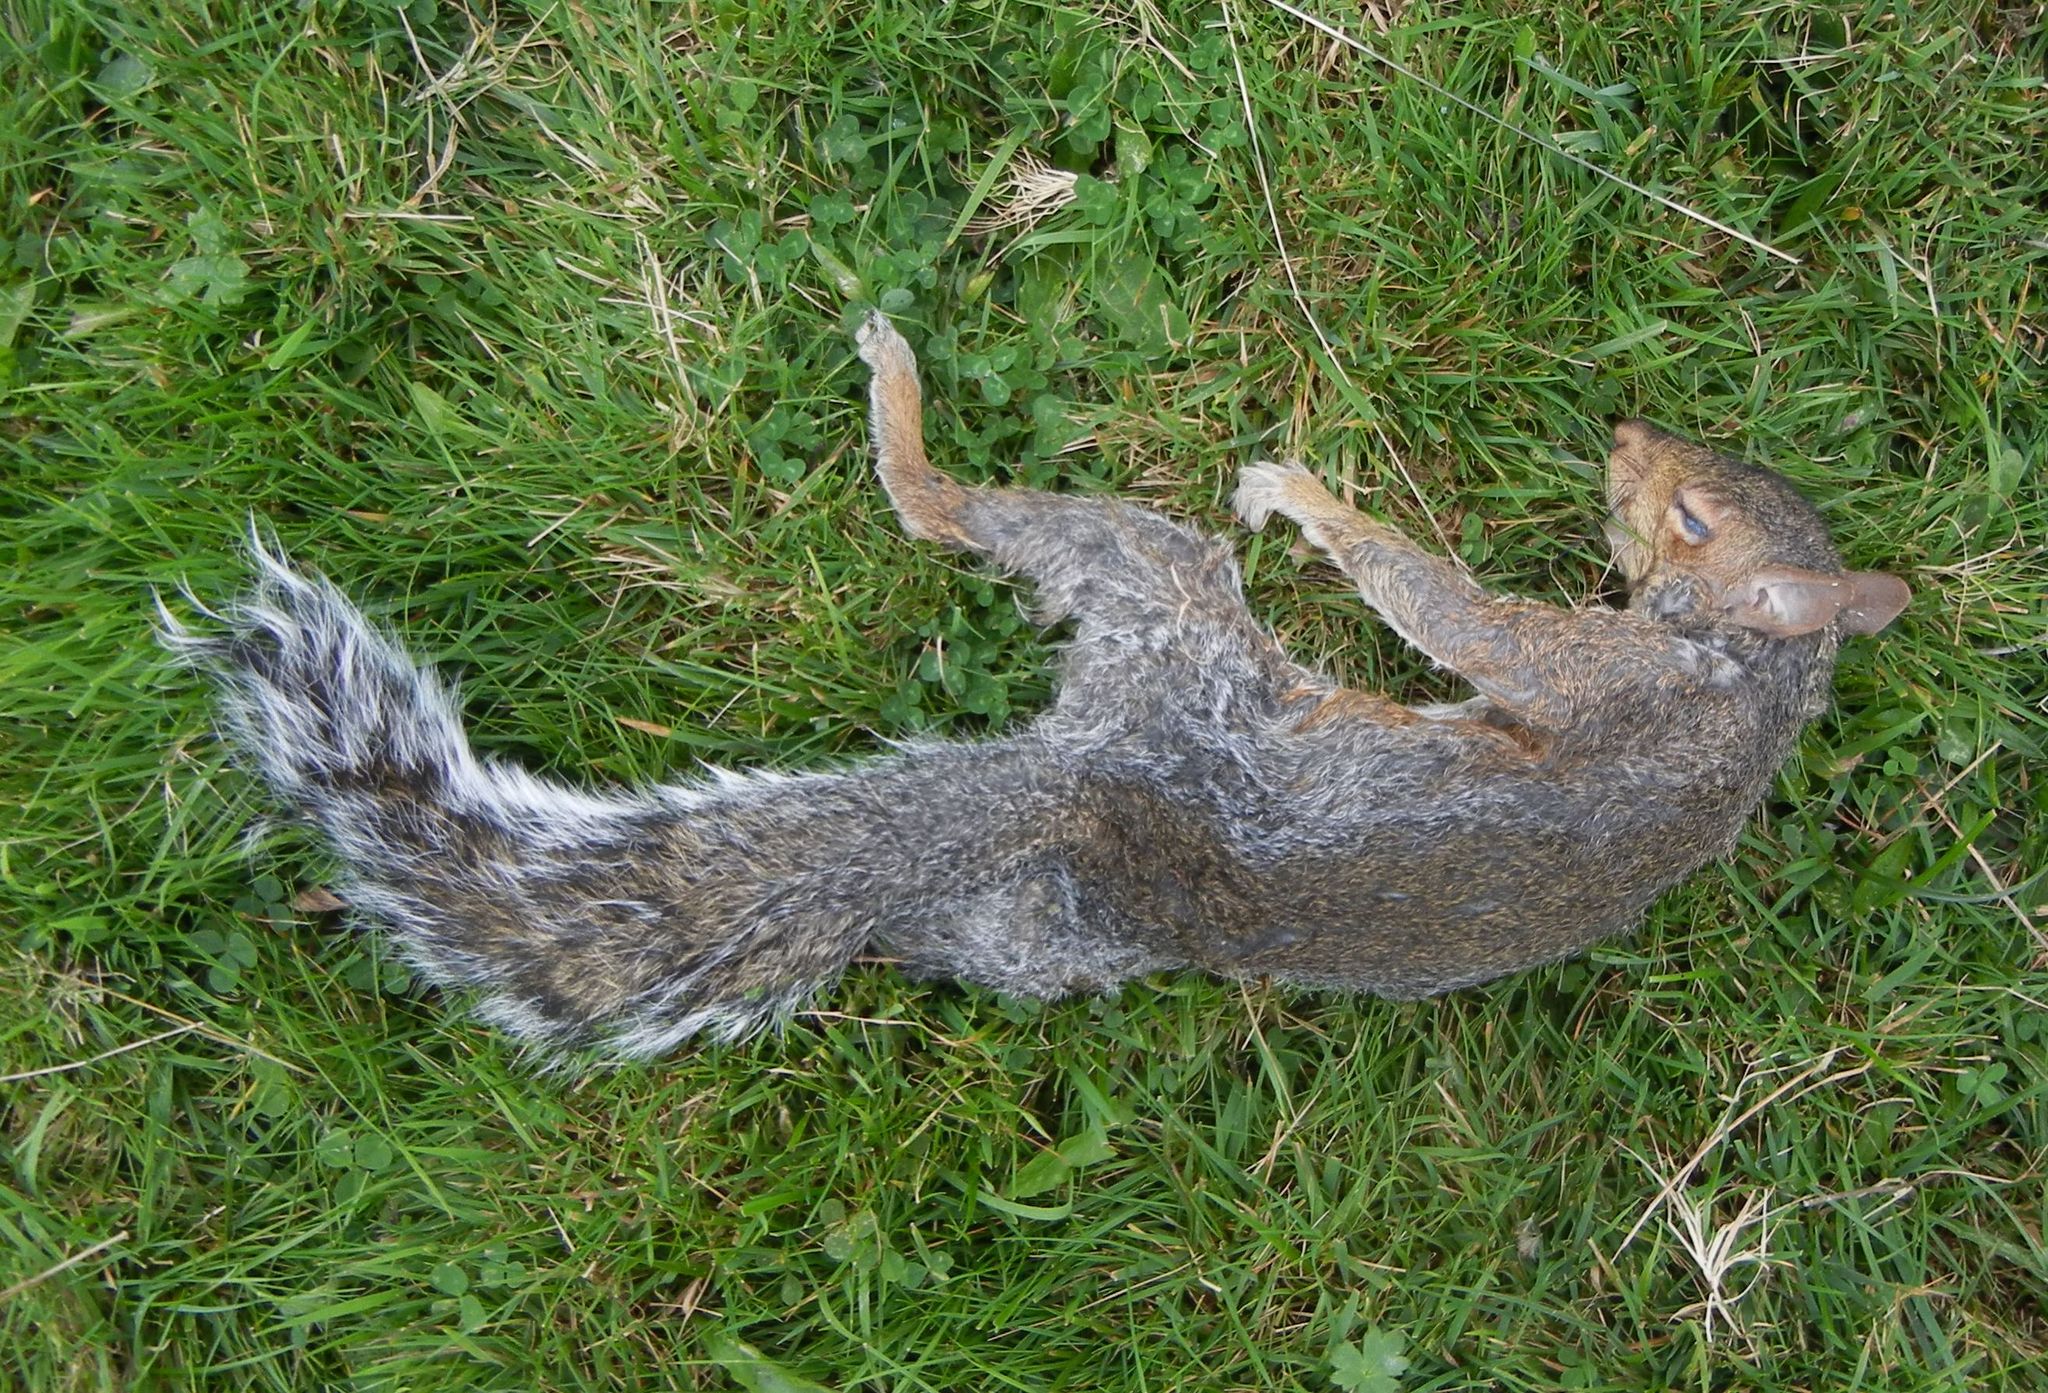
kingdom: Animalia
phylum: Chordata
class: Mammalia
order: Rodentia
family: Sciuridae
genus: Sciurus
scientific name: Sciurus carolinensis
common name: Eastern gray squirrel
